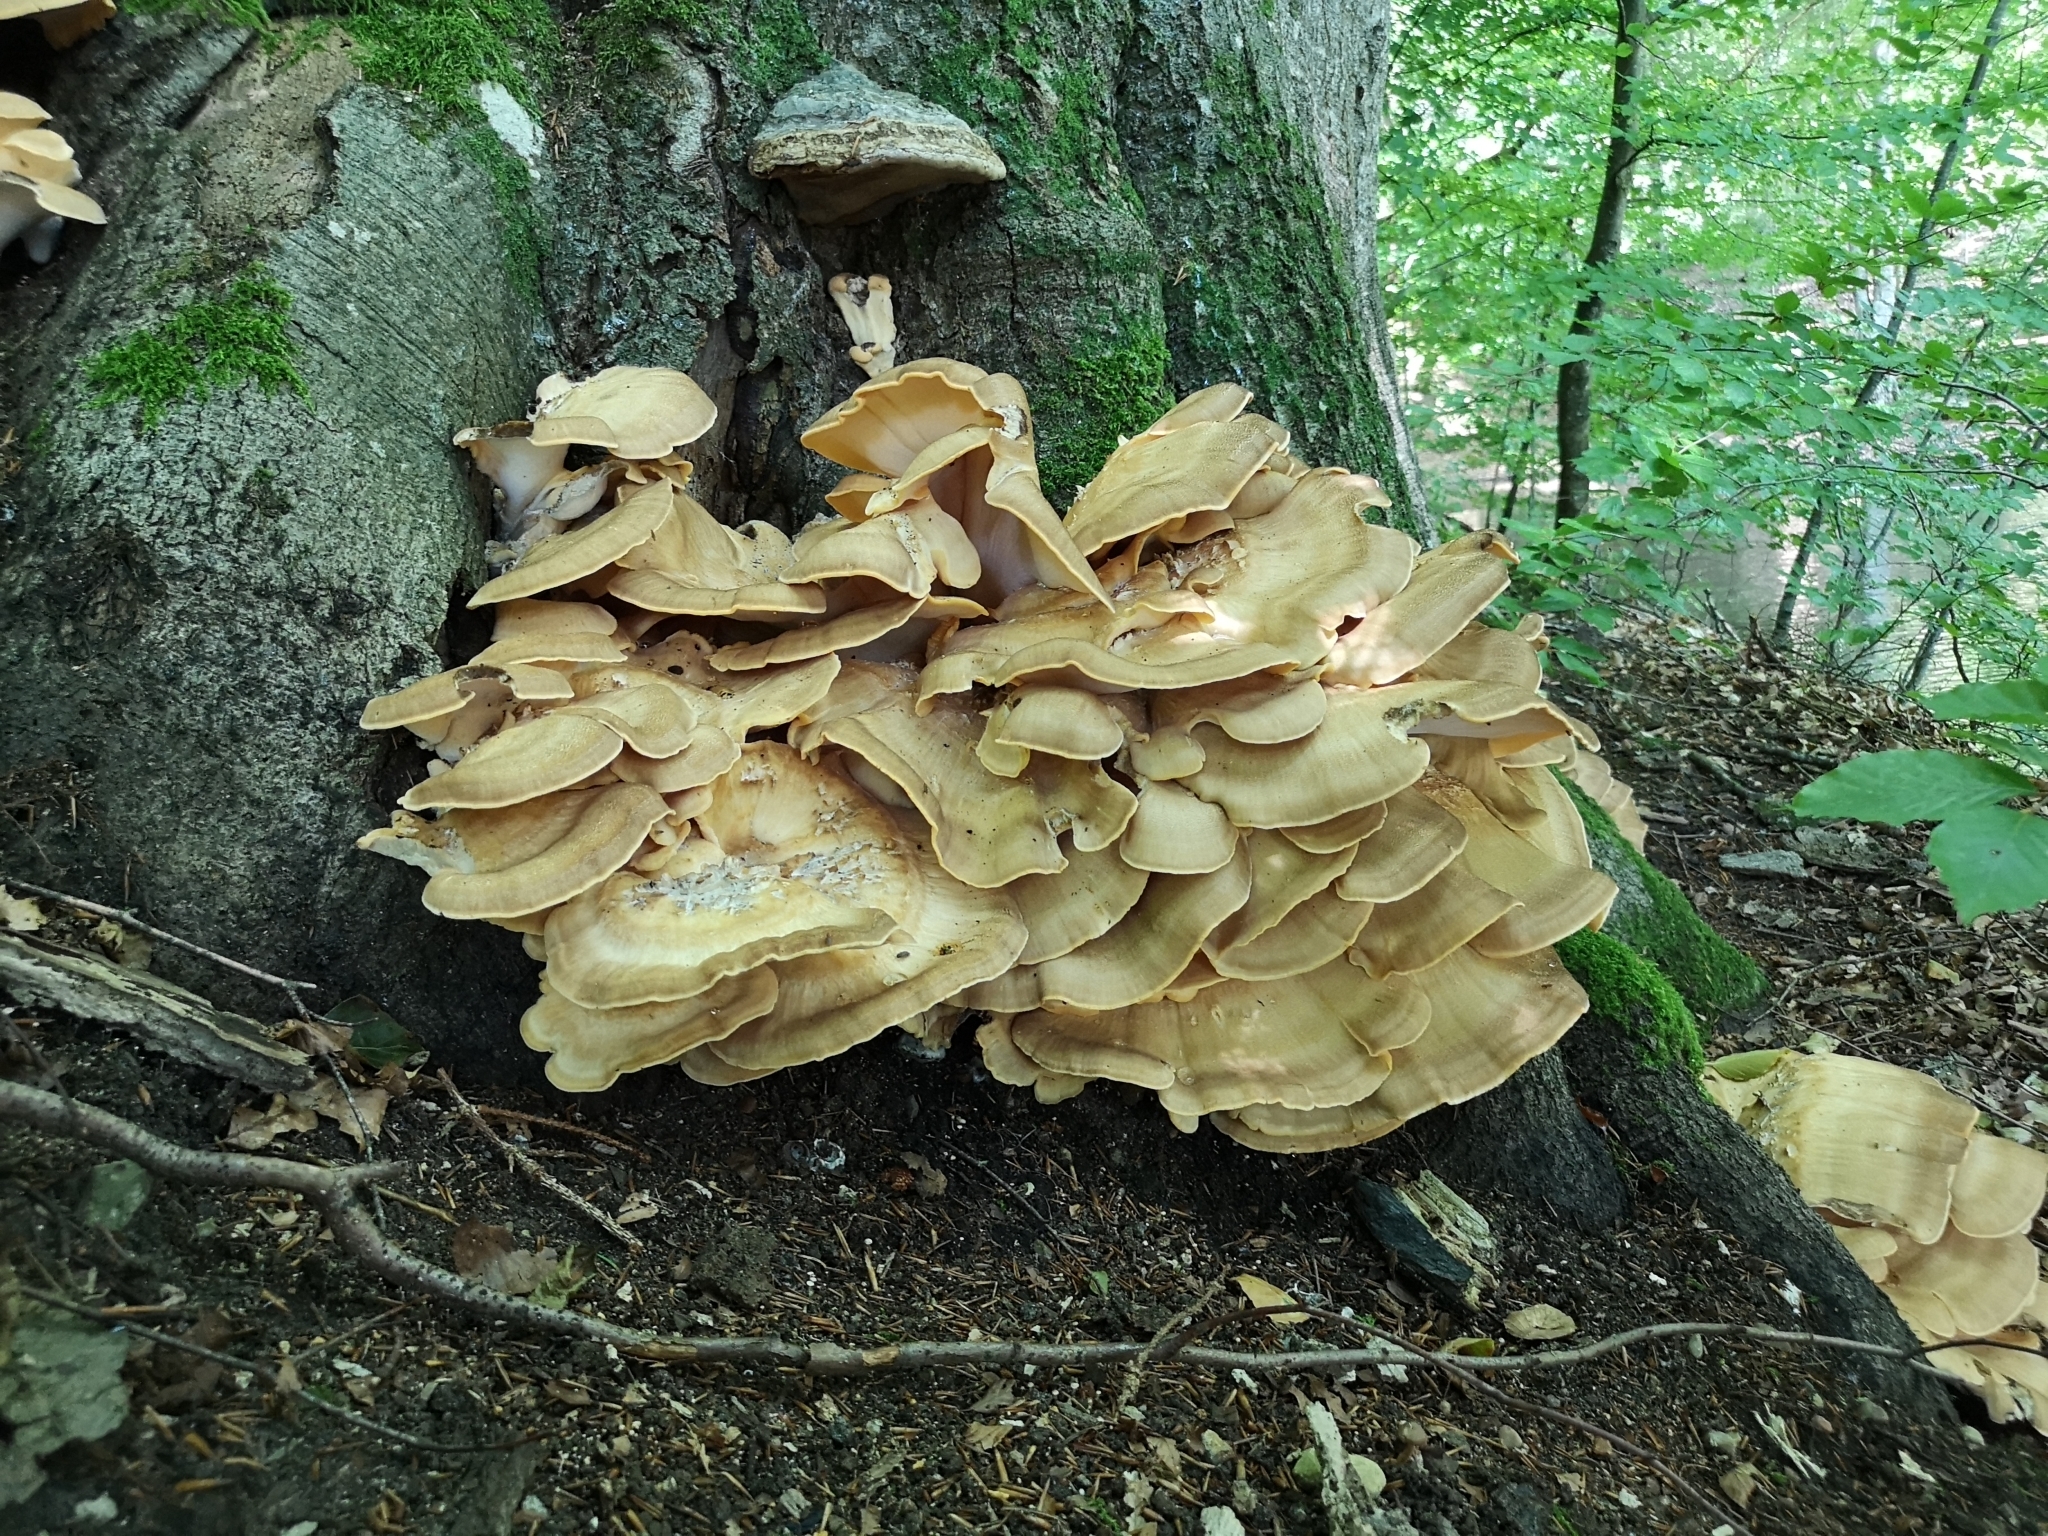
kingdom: Fungi
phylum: Basidiomycota
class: Agaricomycetes
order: Polyporales
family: Meripilaceae
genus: Meripilus
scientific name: Meripilus giganteus
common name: Giant polypore
